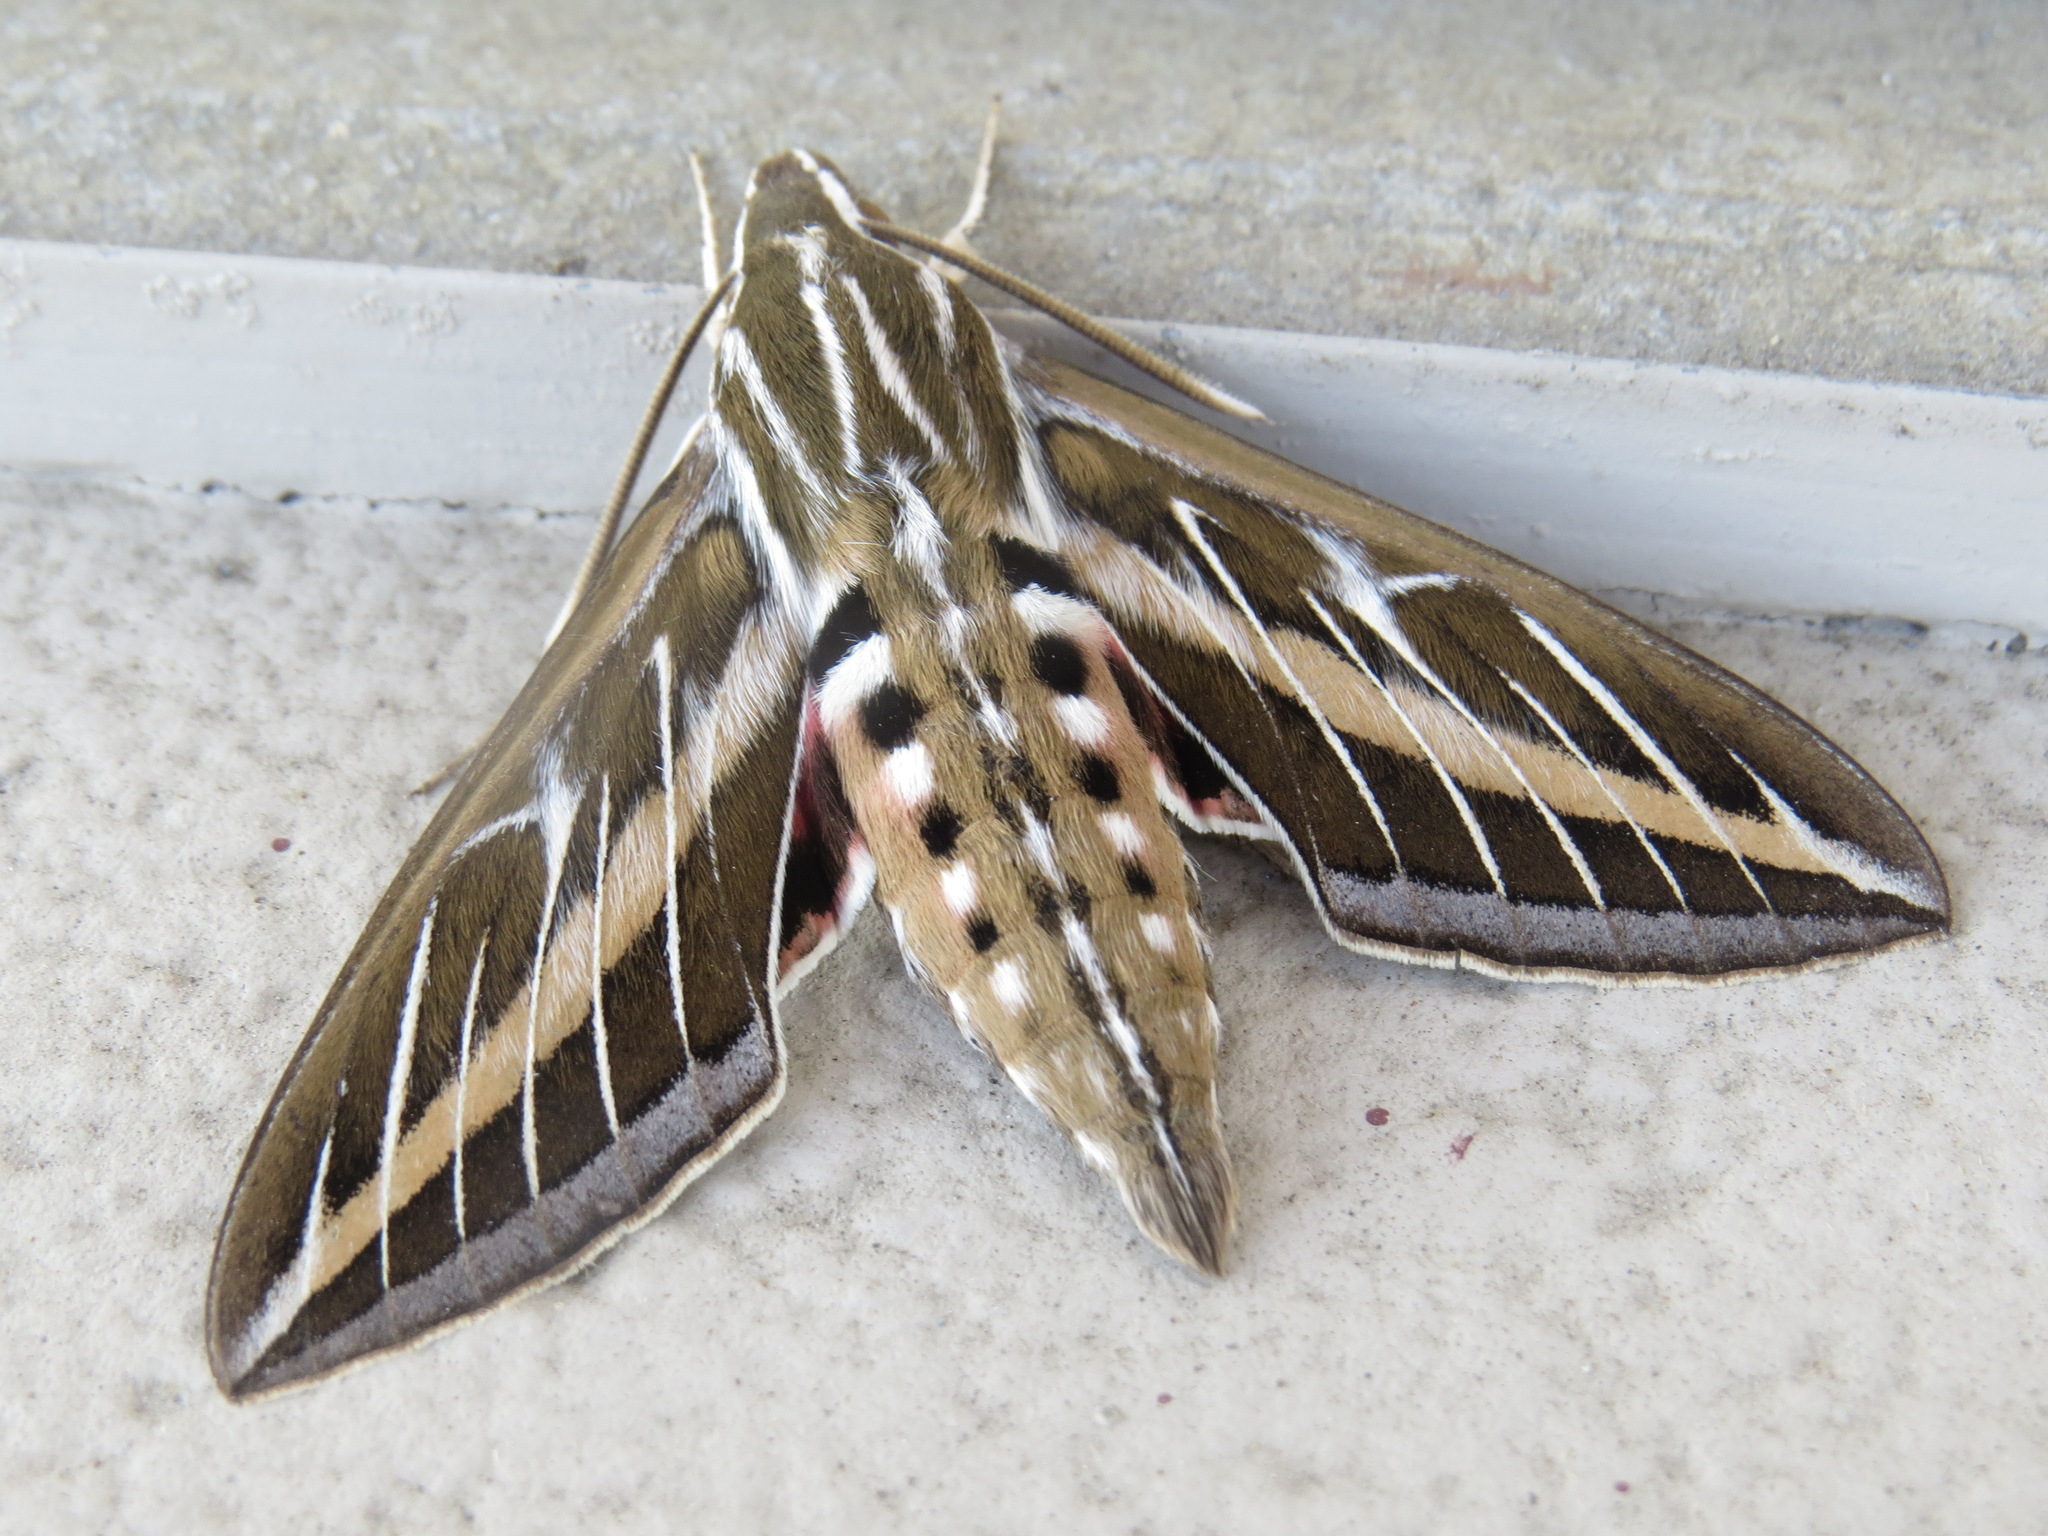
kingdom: Animalia
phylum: Arthropoda
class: Insecta
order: Lepidoptera
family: Sphingidae
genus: Hyles
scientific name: Hyles lineata
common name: White-lined sphinx
